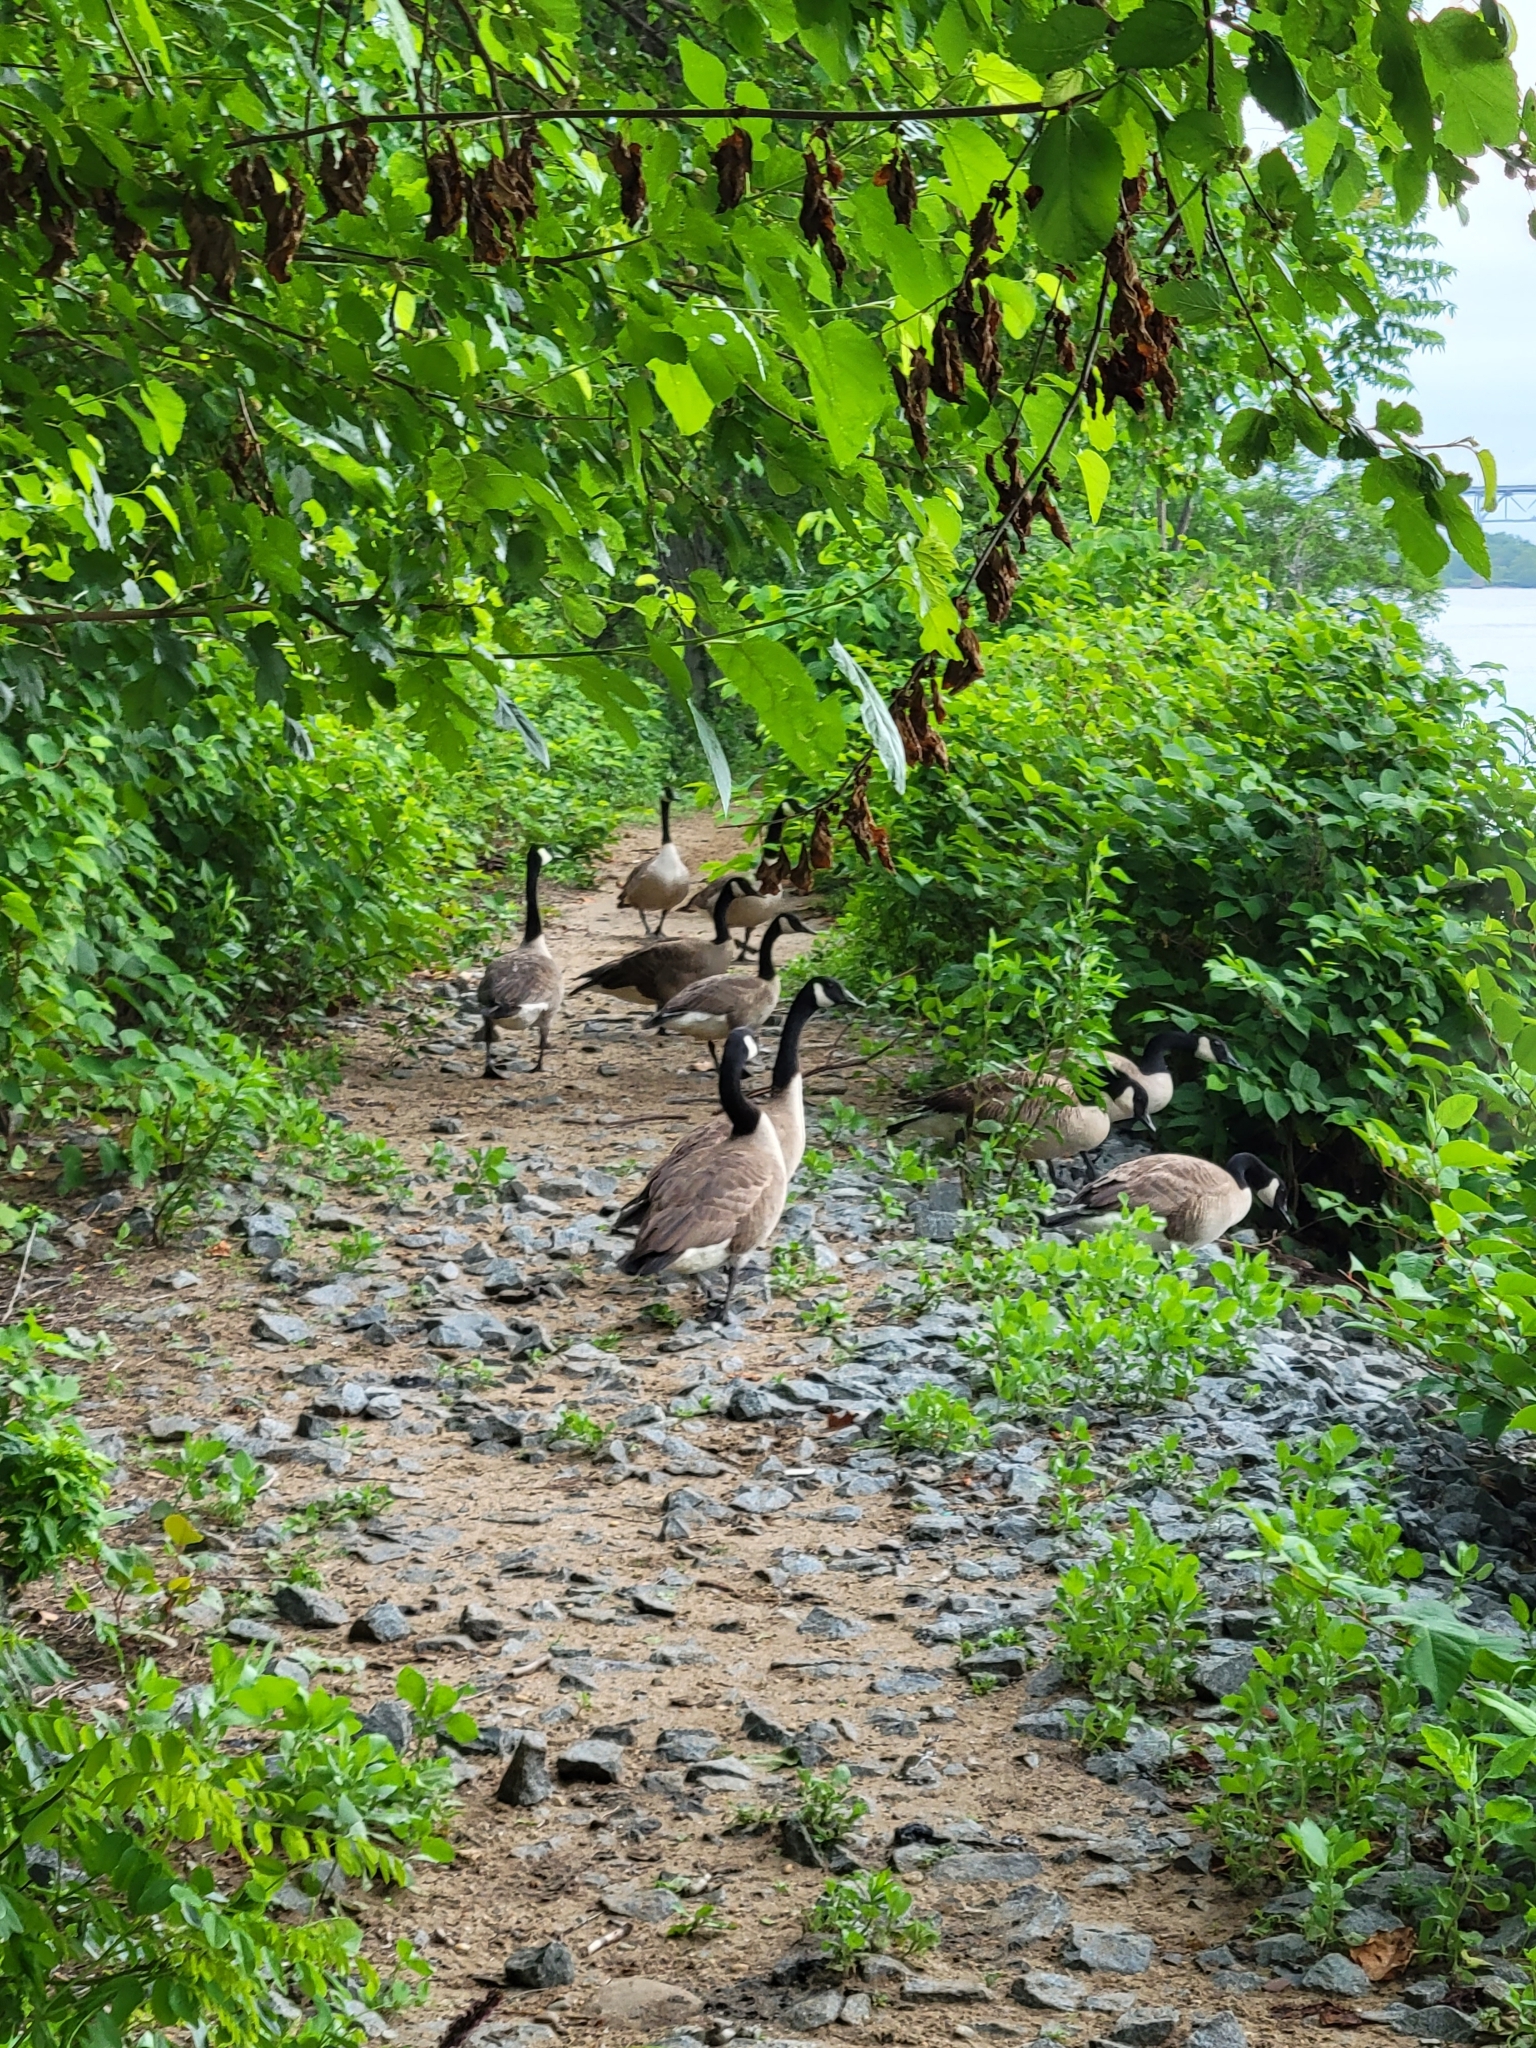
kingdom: Animalia
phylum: Chordata
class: Aves
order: Anseriformes
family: Anatidae
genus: Branta
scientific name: Branta canadensis
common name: Canada goose
